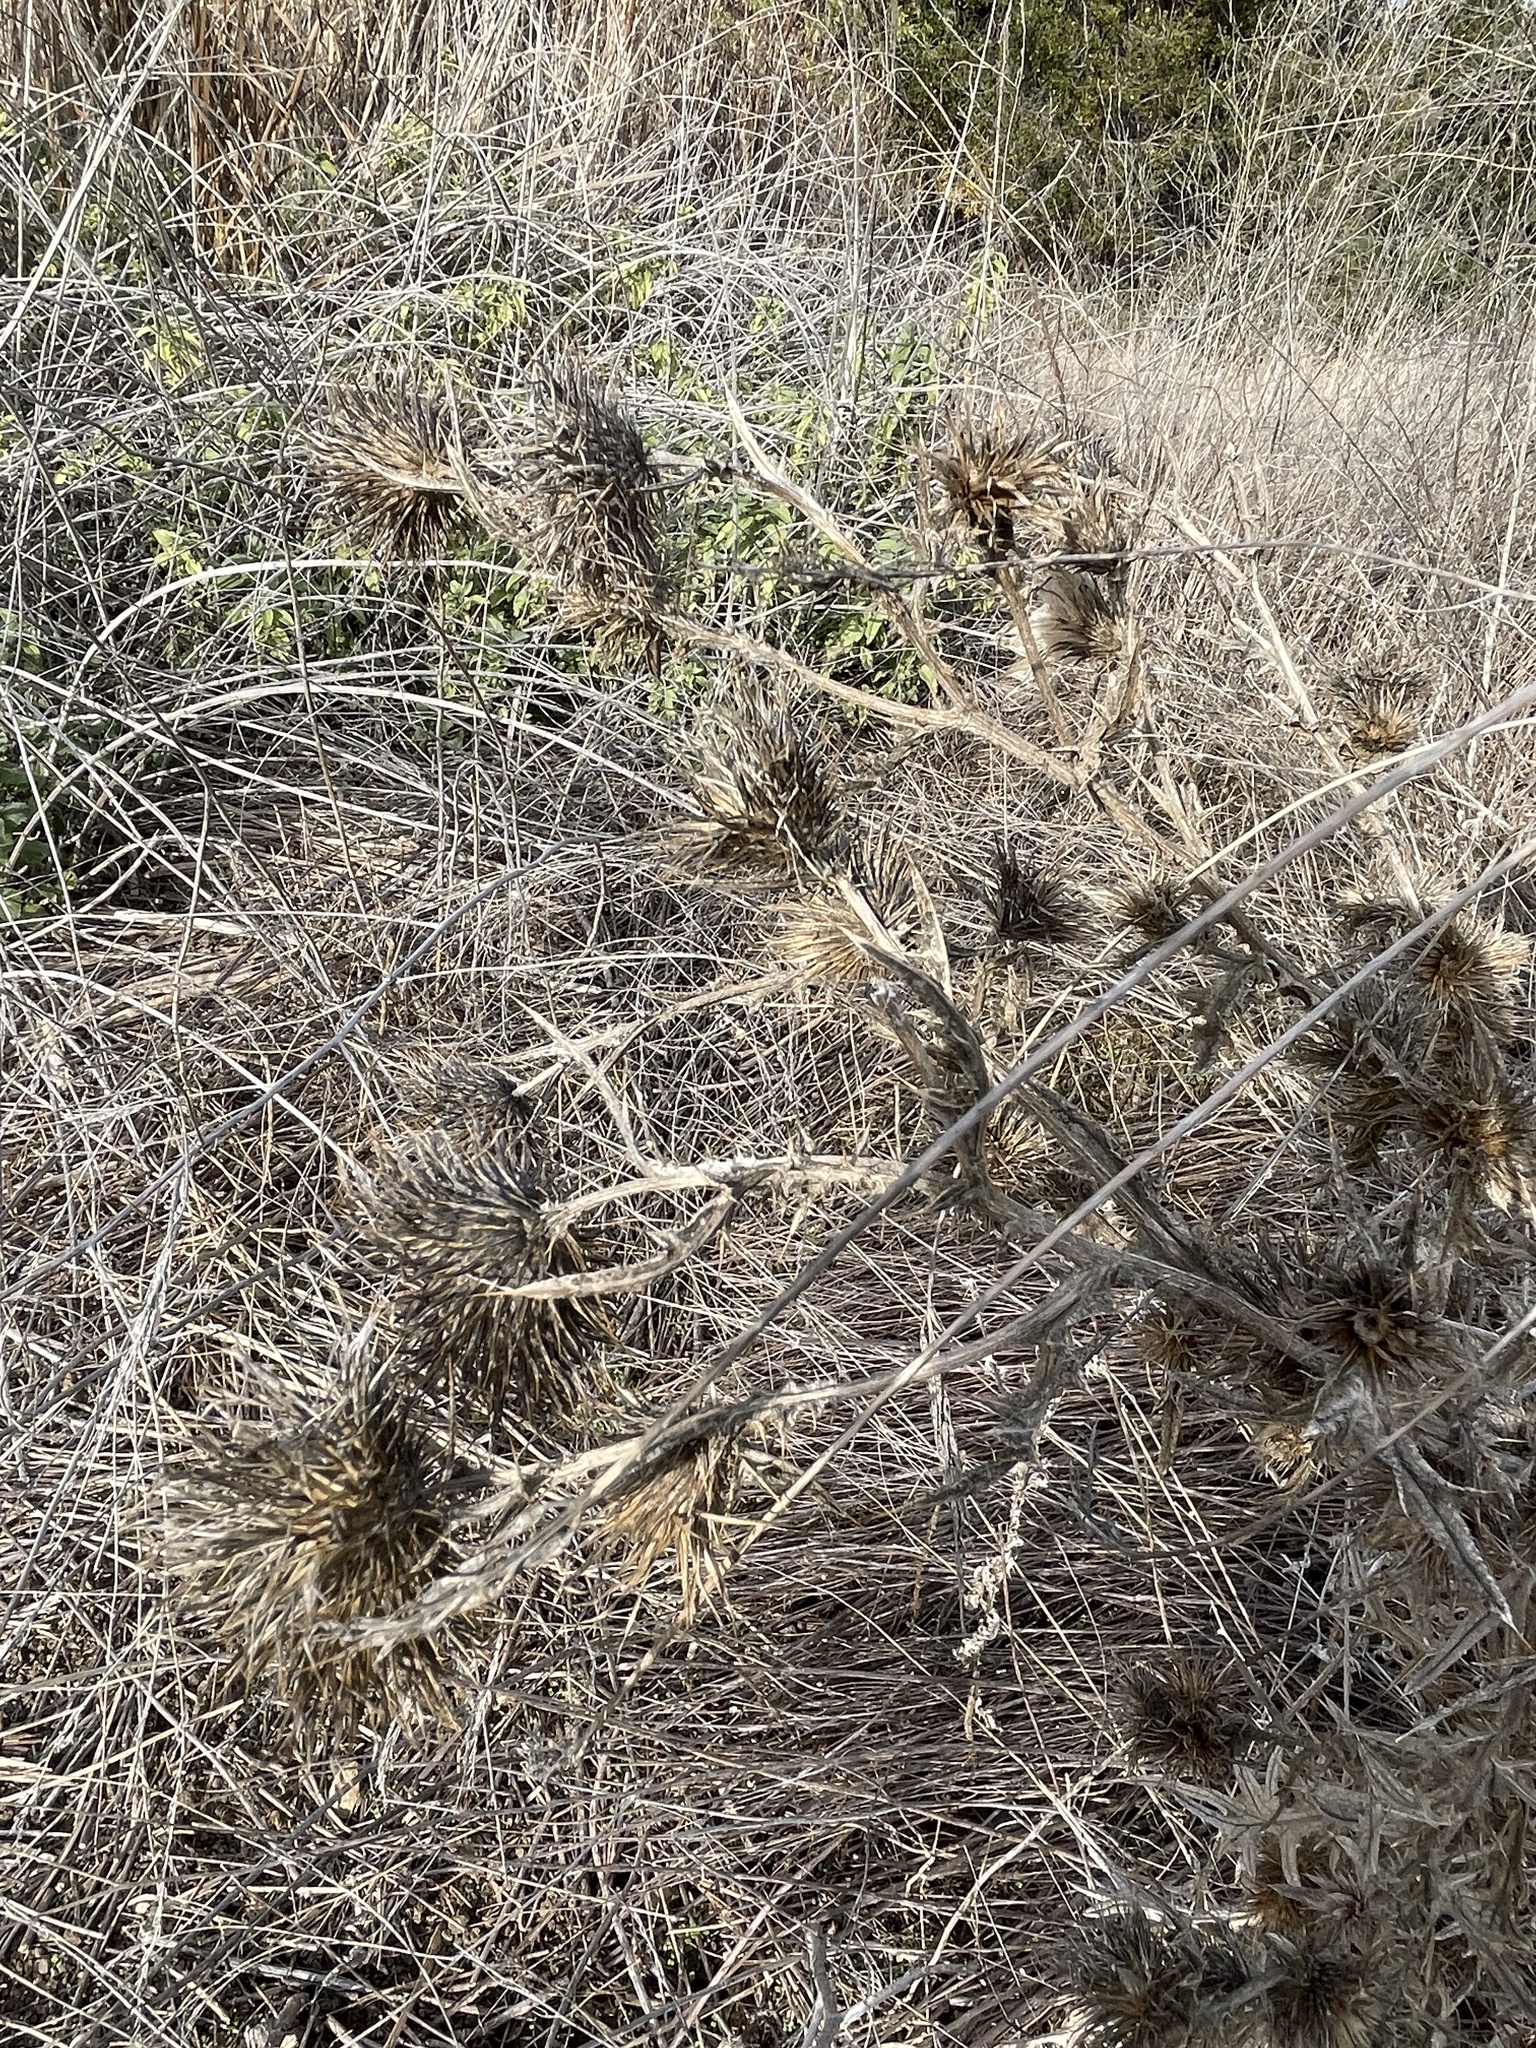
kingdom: Plantae
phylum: Tracheophyta
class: Magnoliopsida
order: Asterales
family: Asteraceae
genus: Cirsium
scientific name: Cirsium vulgare
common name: Bull thistle
